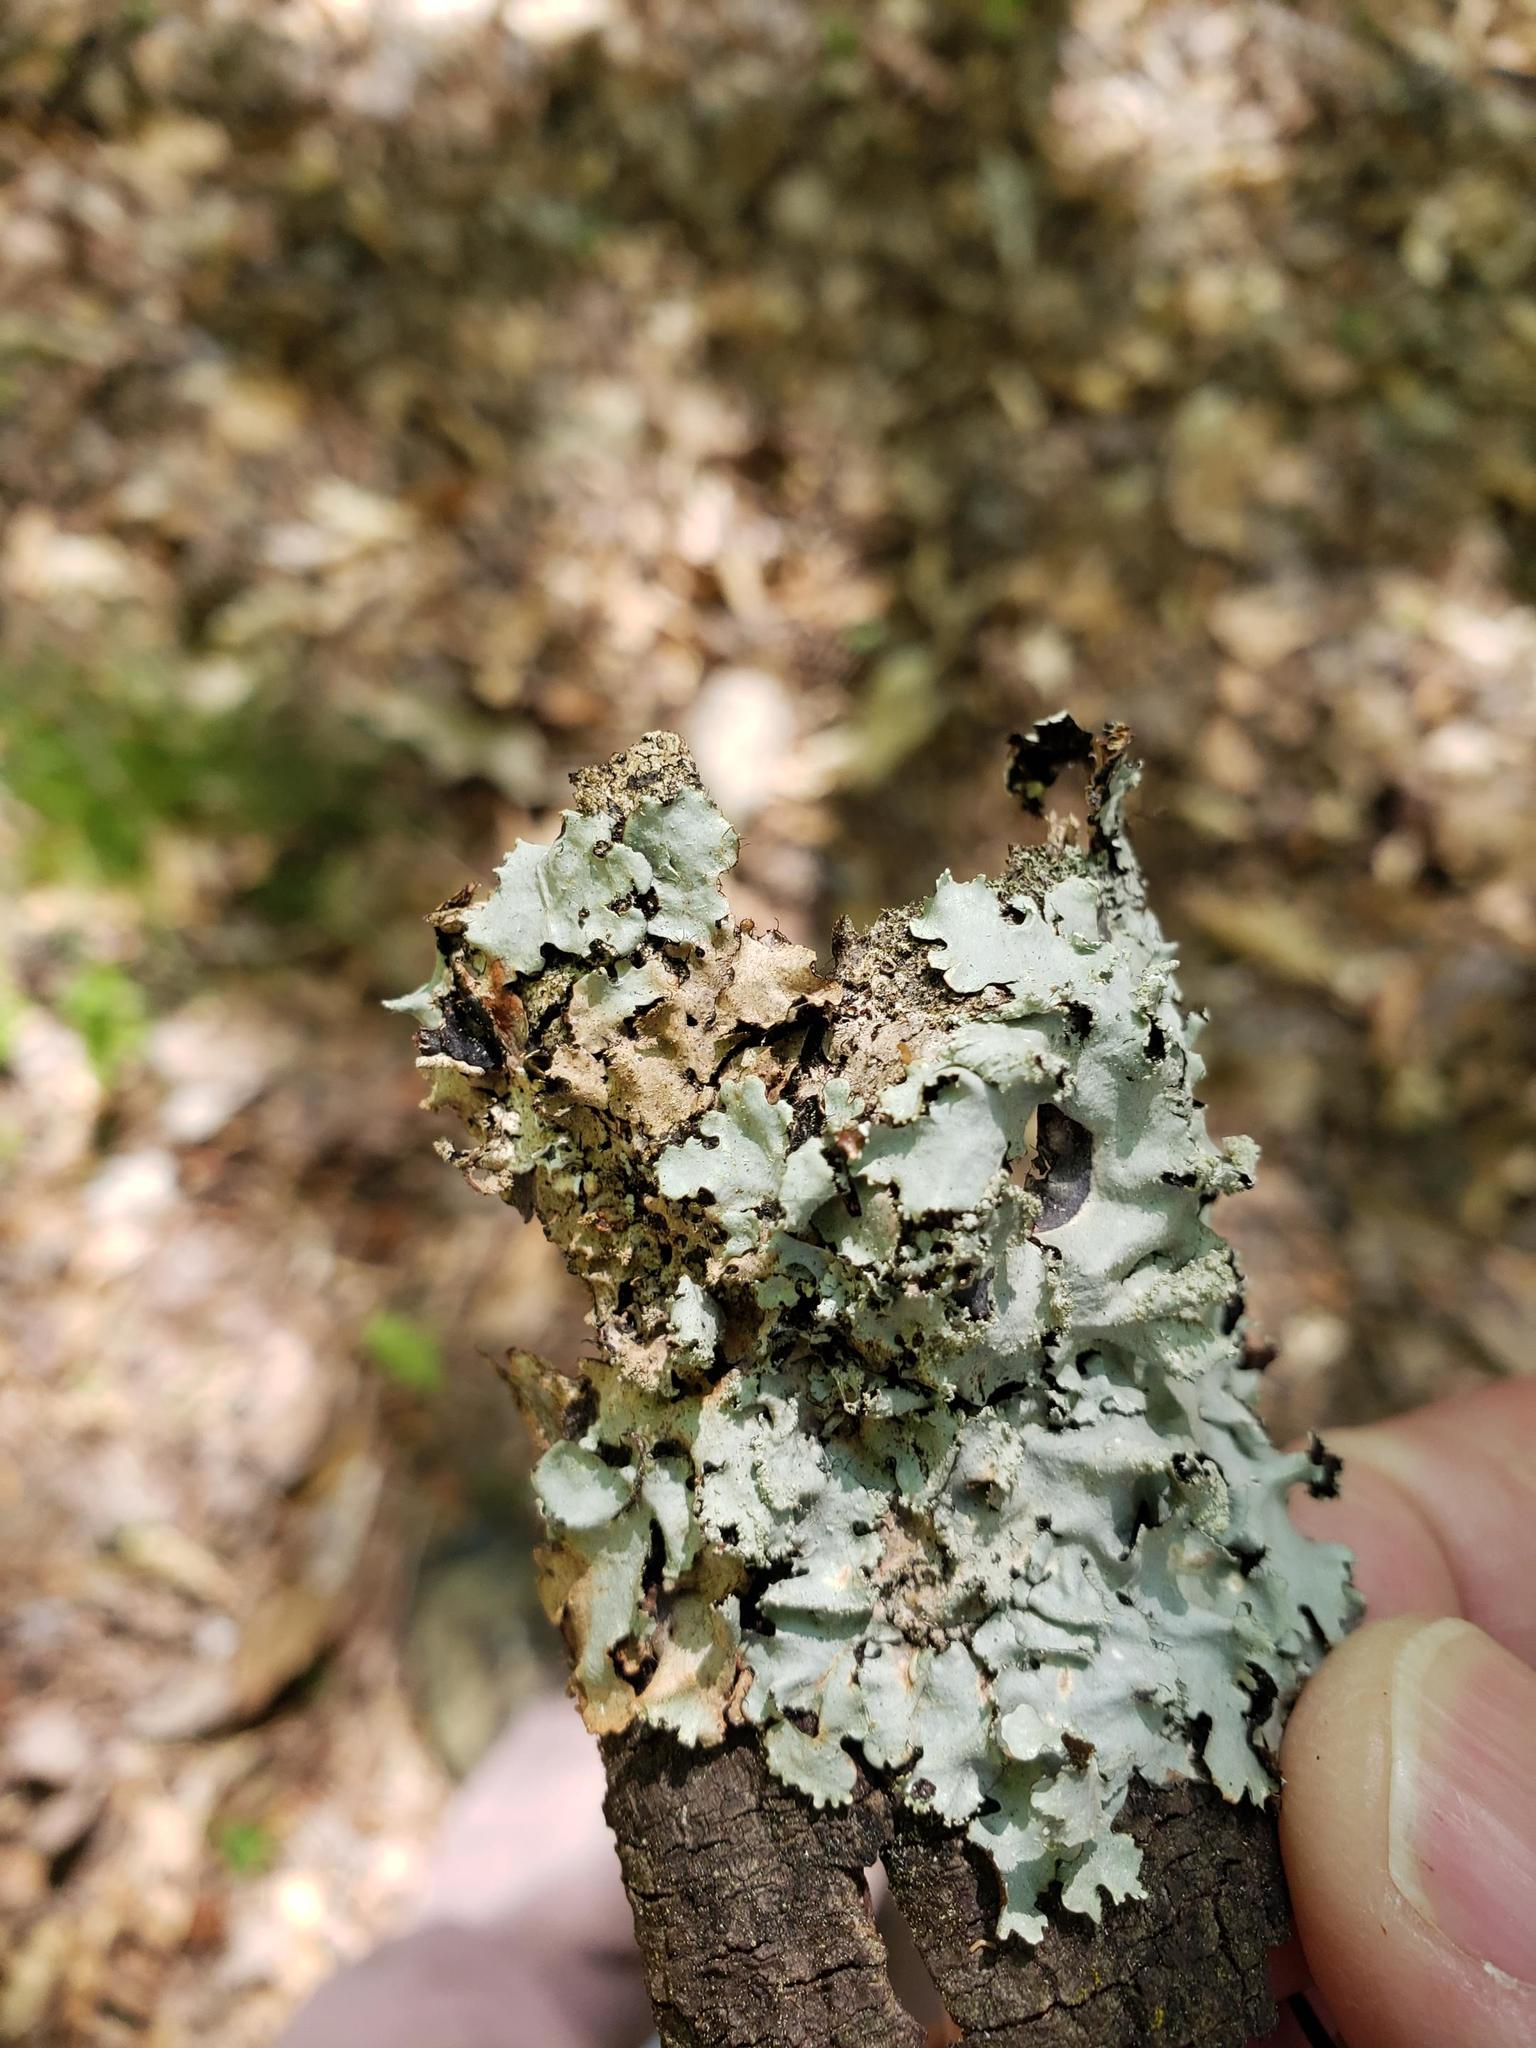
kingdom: Fungi
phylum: Ascomycota
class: Lecanoromycetes
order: Lecanorales
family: Parmeliaceae
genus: Rimelia
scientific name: Rimelia subisidiosa
